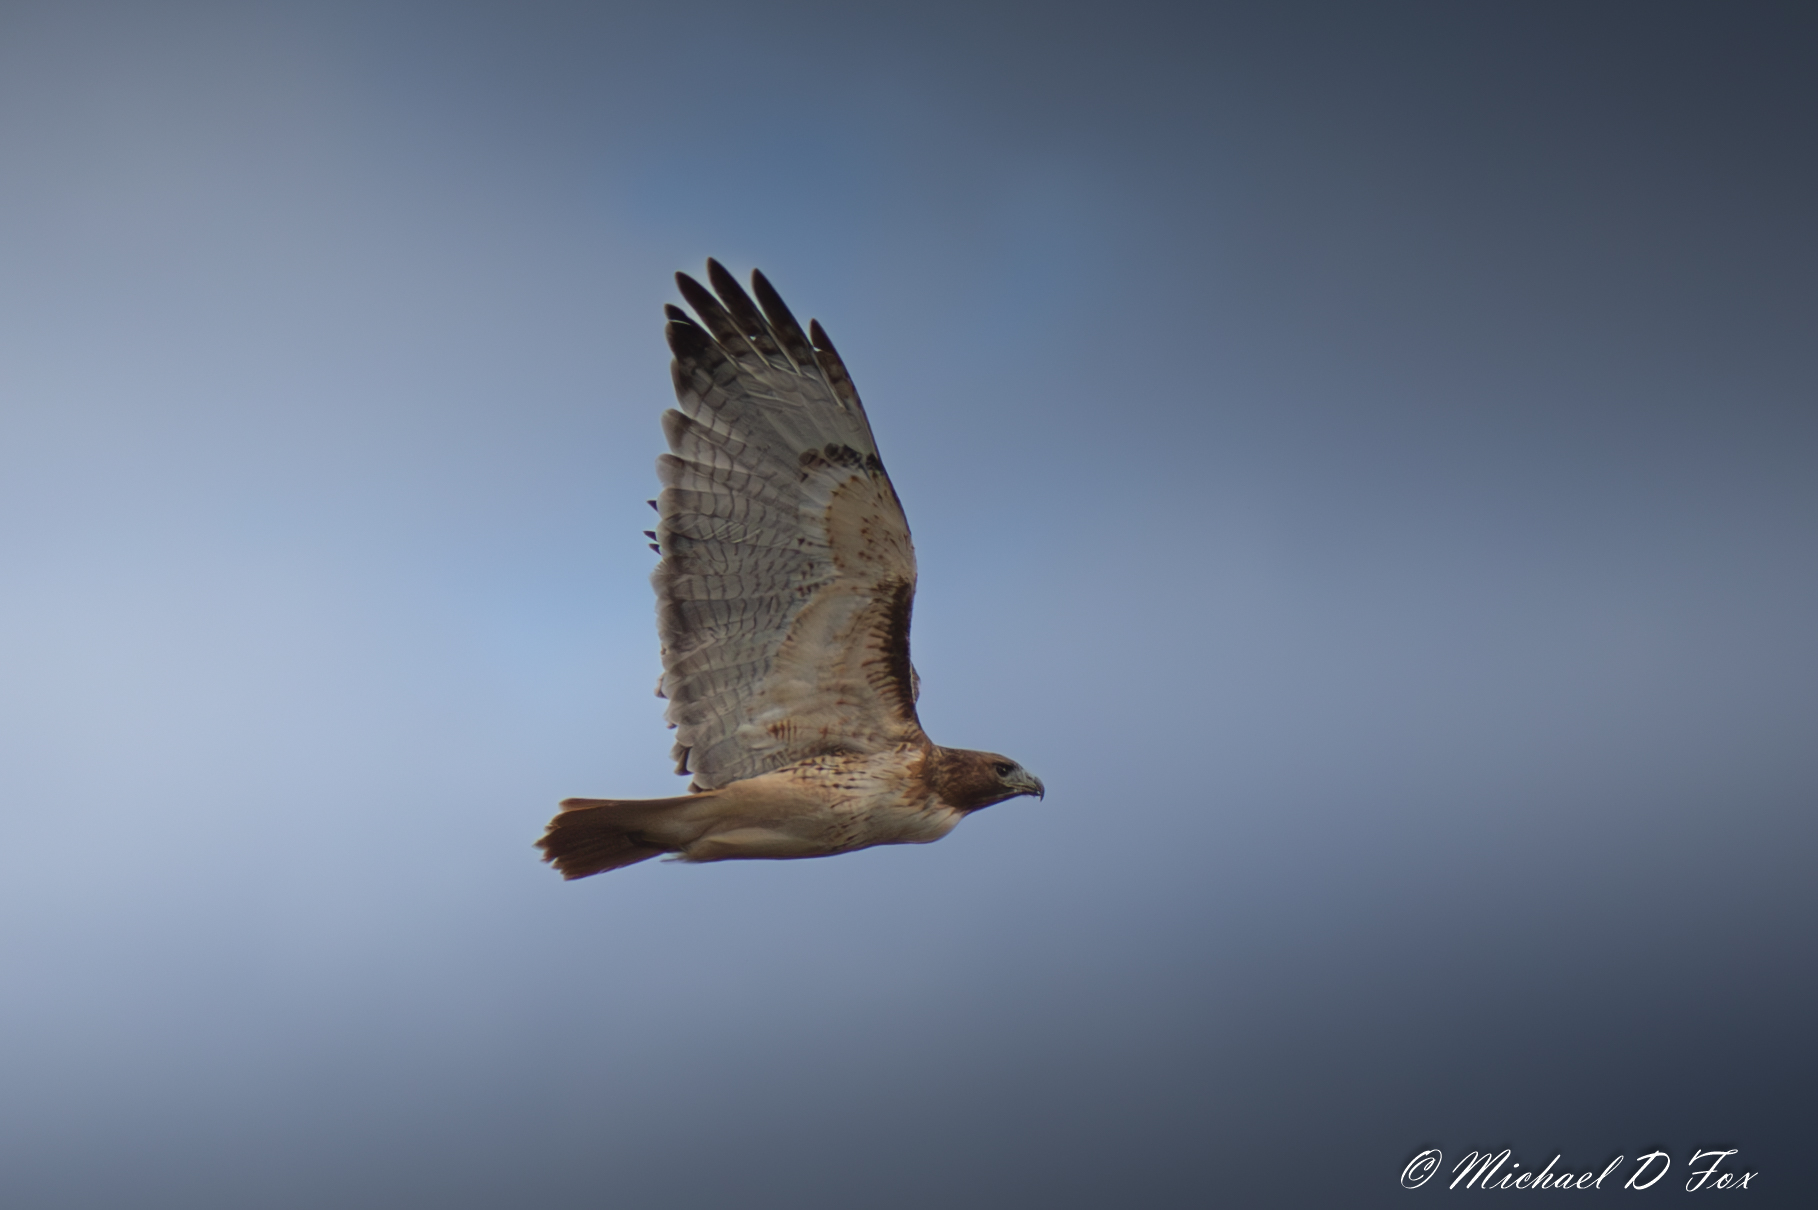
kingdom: Animalia
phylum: Chordata
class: Aves
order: Accipitriformes
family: Accipitridae
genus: Buteo
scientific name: Buteo jamaicensis
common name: Red-tailed hawk
